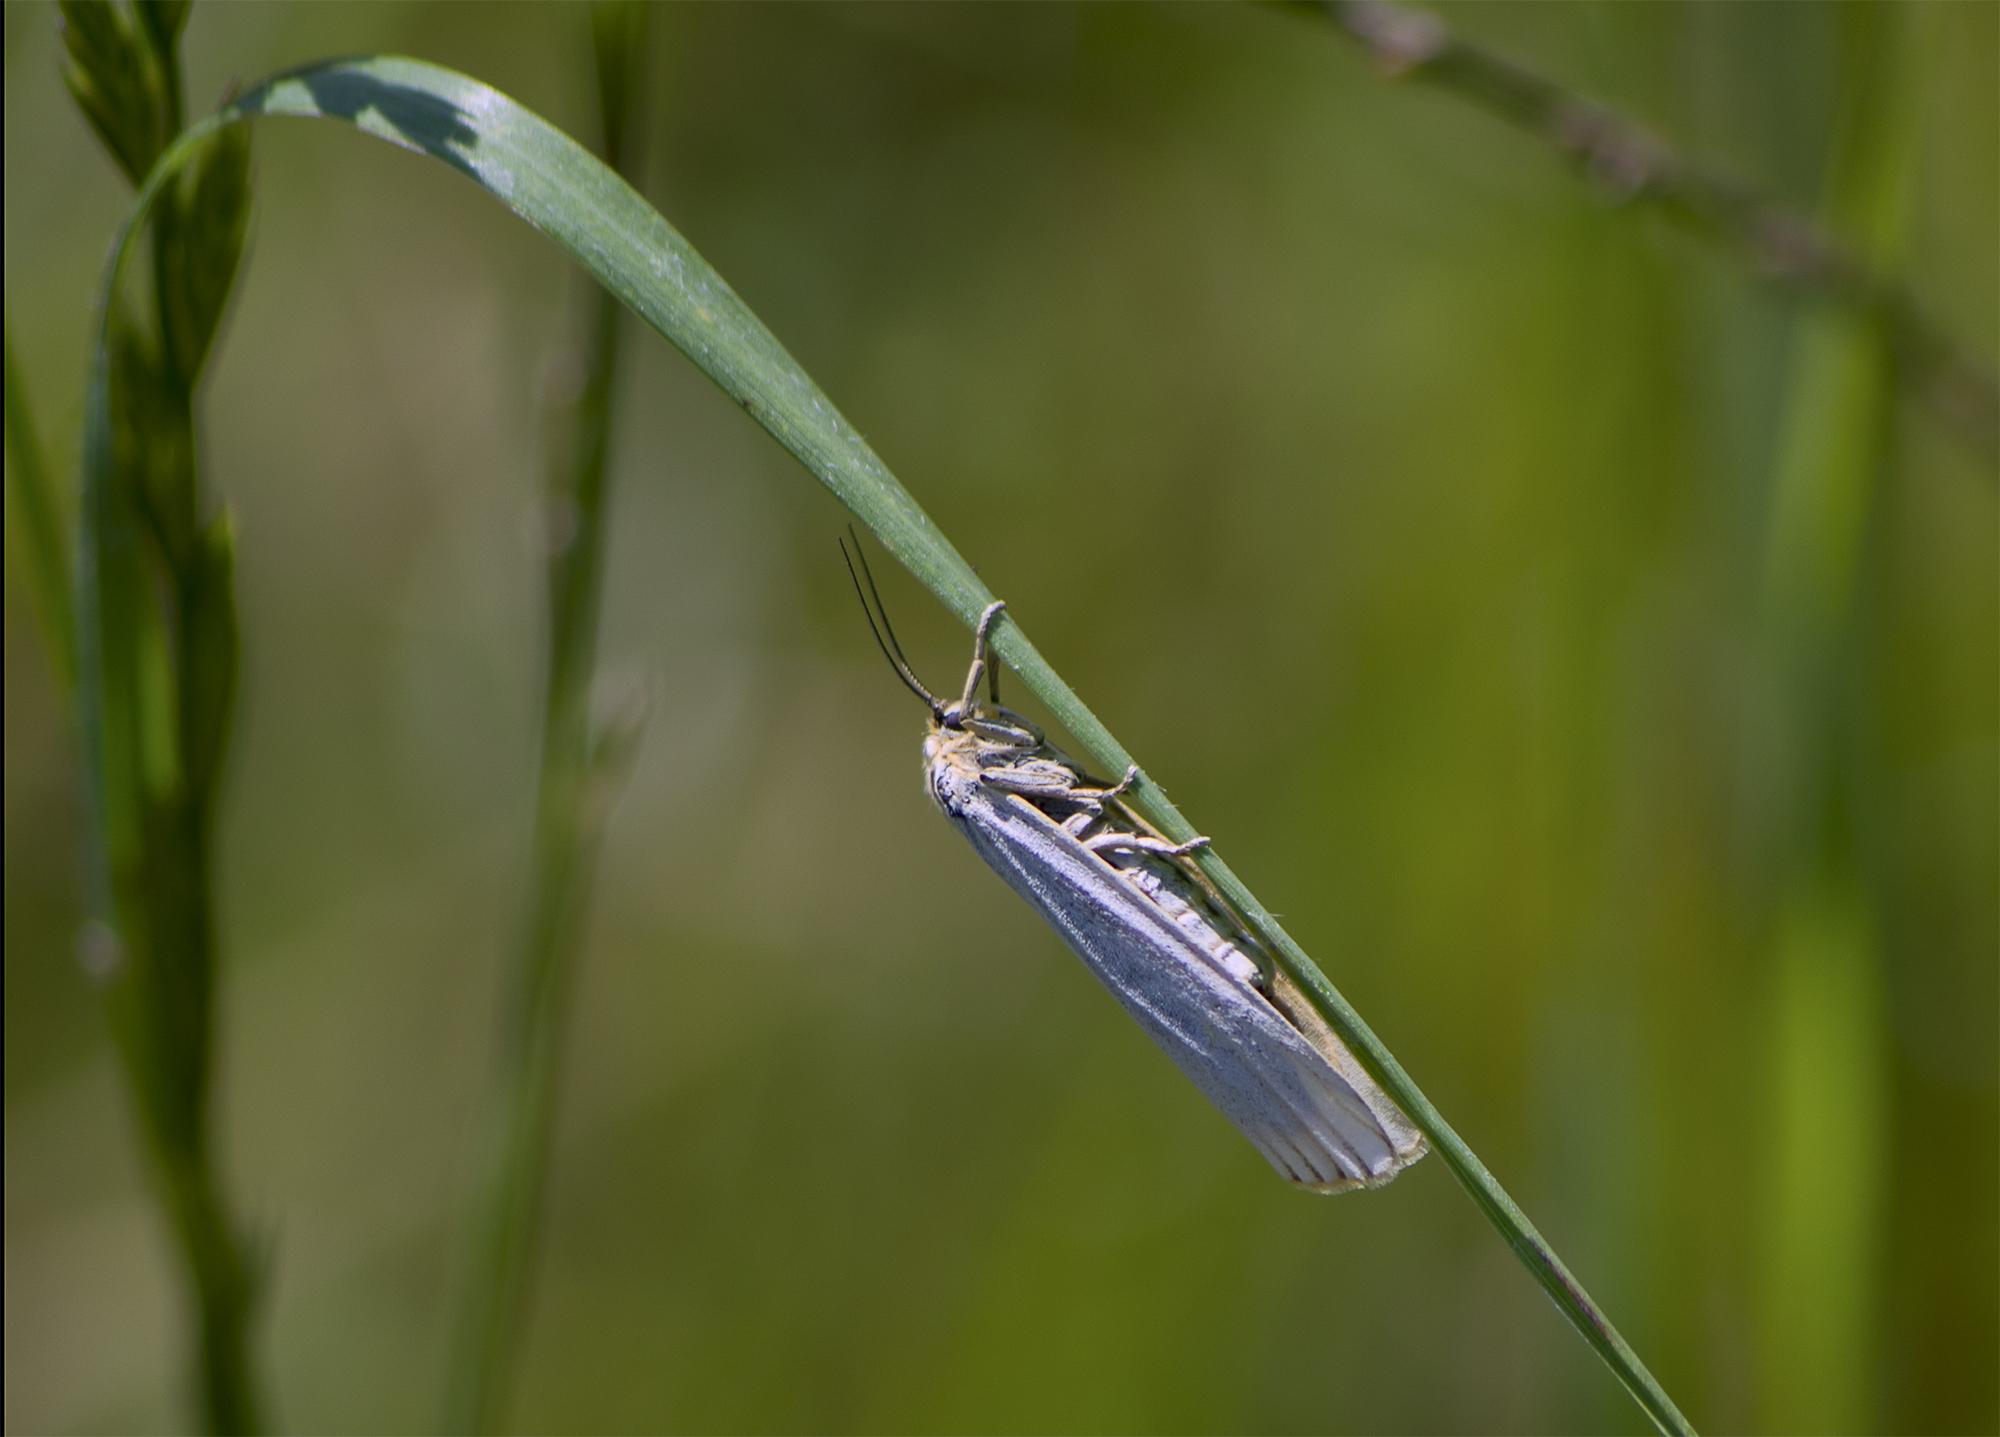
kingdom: Animalia
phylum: Arthropoda
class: Insecta
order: Lepidoptera
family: Erebidae
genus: Coscinia
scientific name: Coscinia Spiris striata
